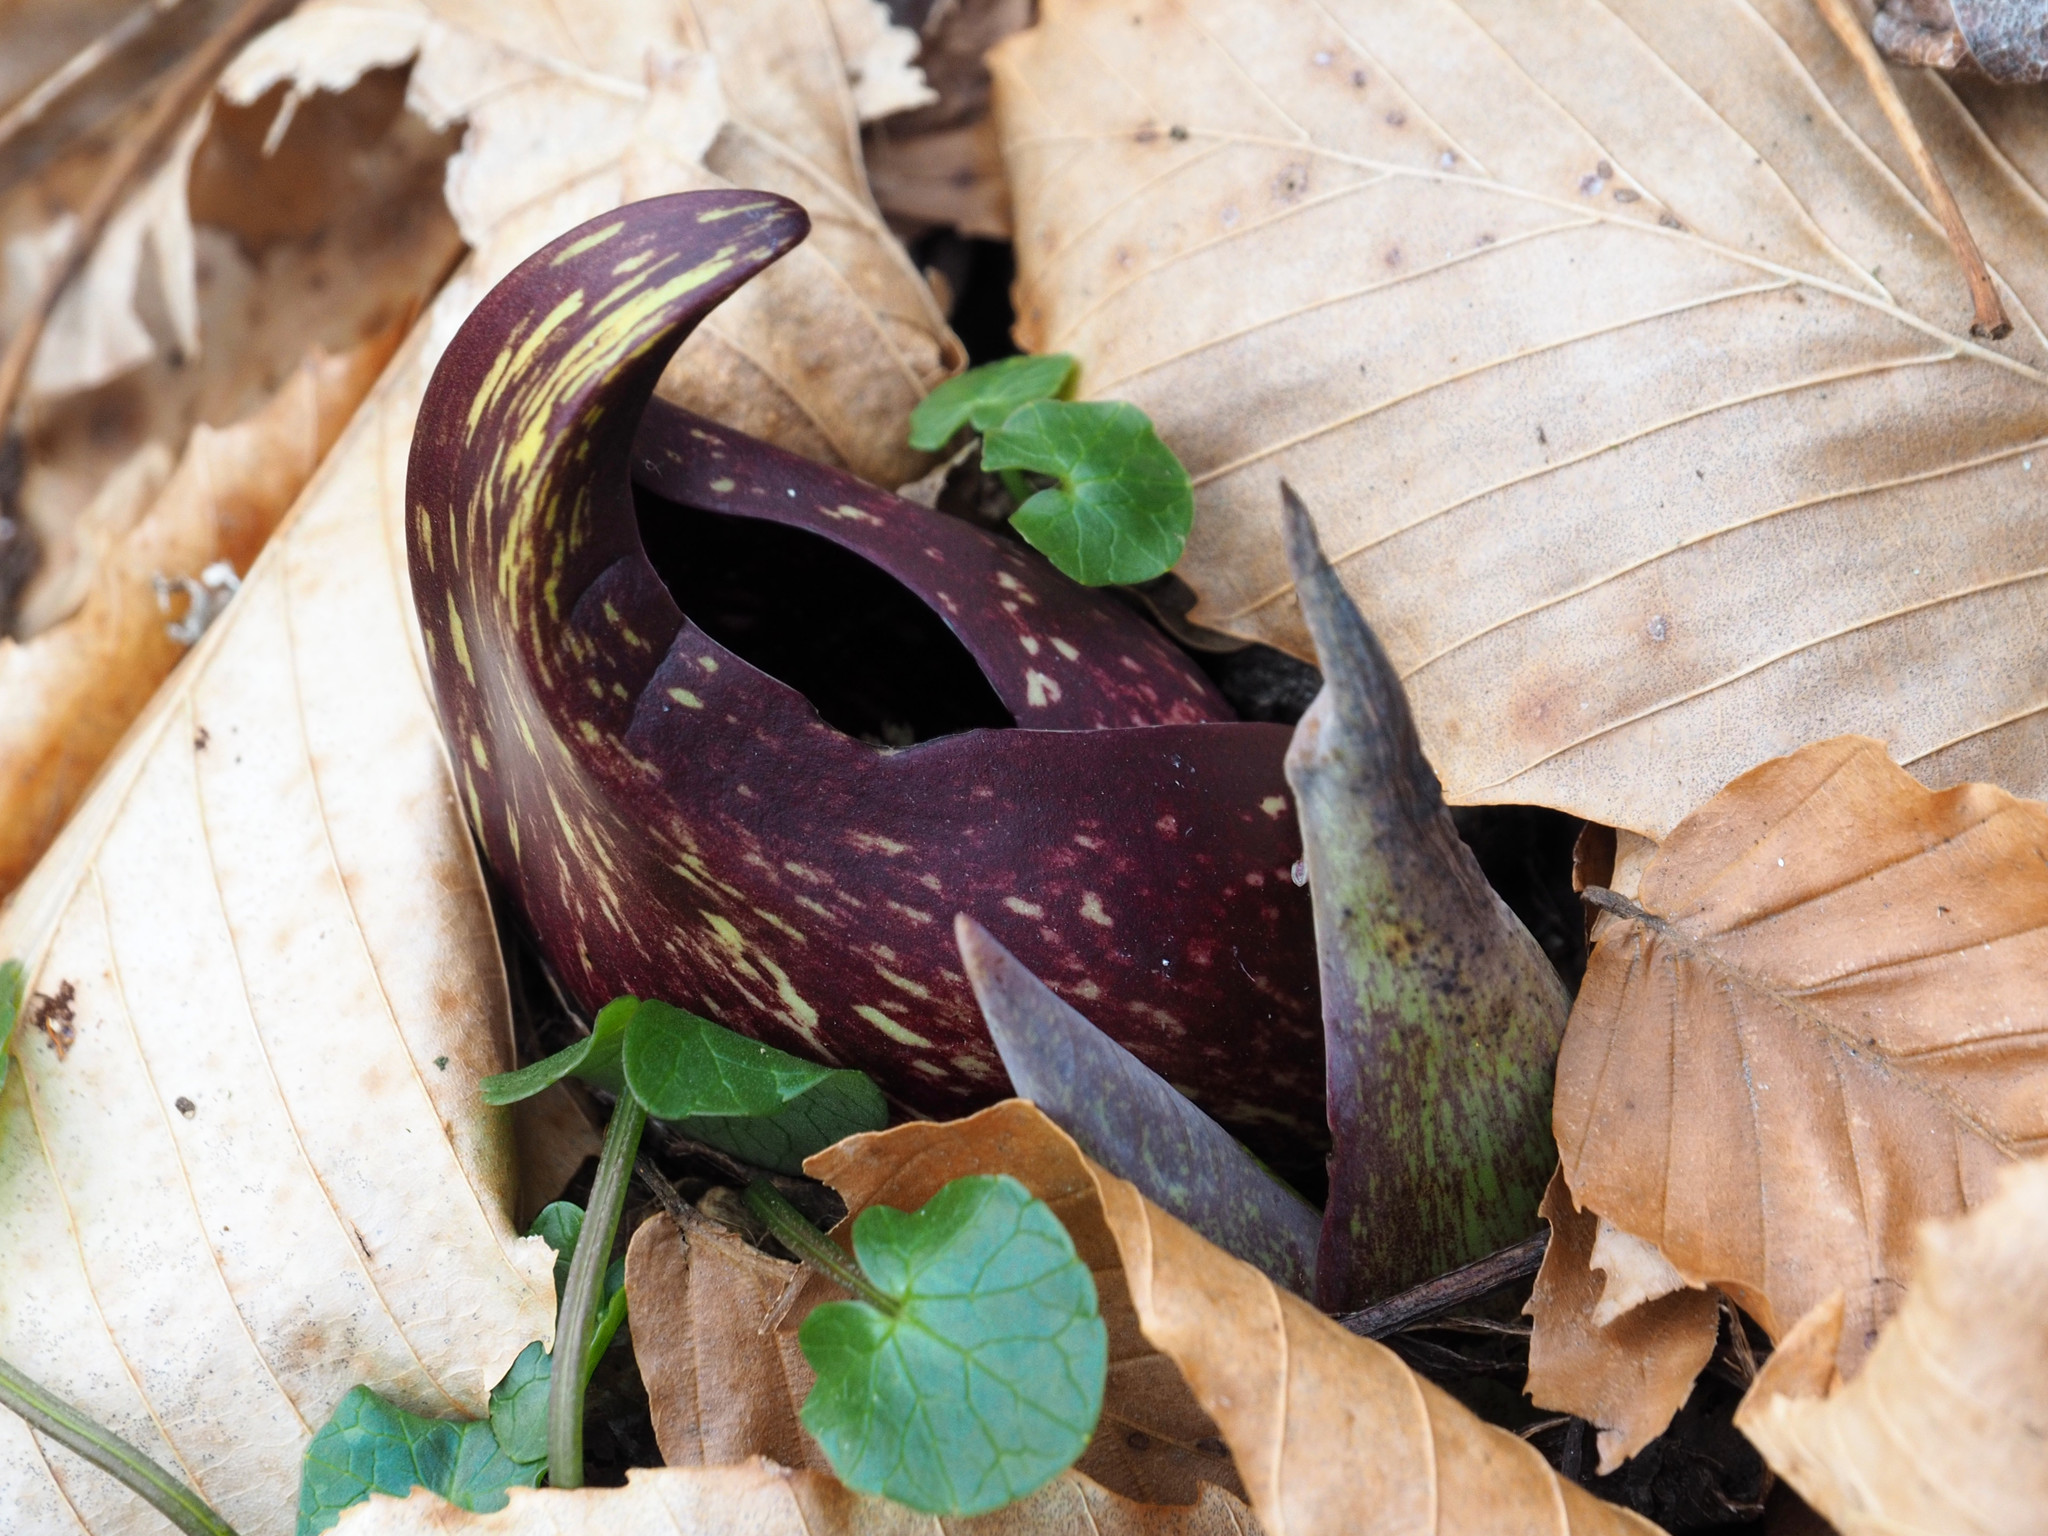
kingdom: Plantae
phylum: Tracheophyta
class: Liliopsida
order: Alismatales
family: Araceae
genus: Symplocarpus
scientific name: Symplocarpus foetidus
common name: Eastern skunk cabbage
